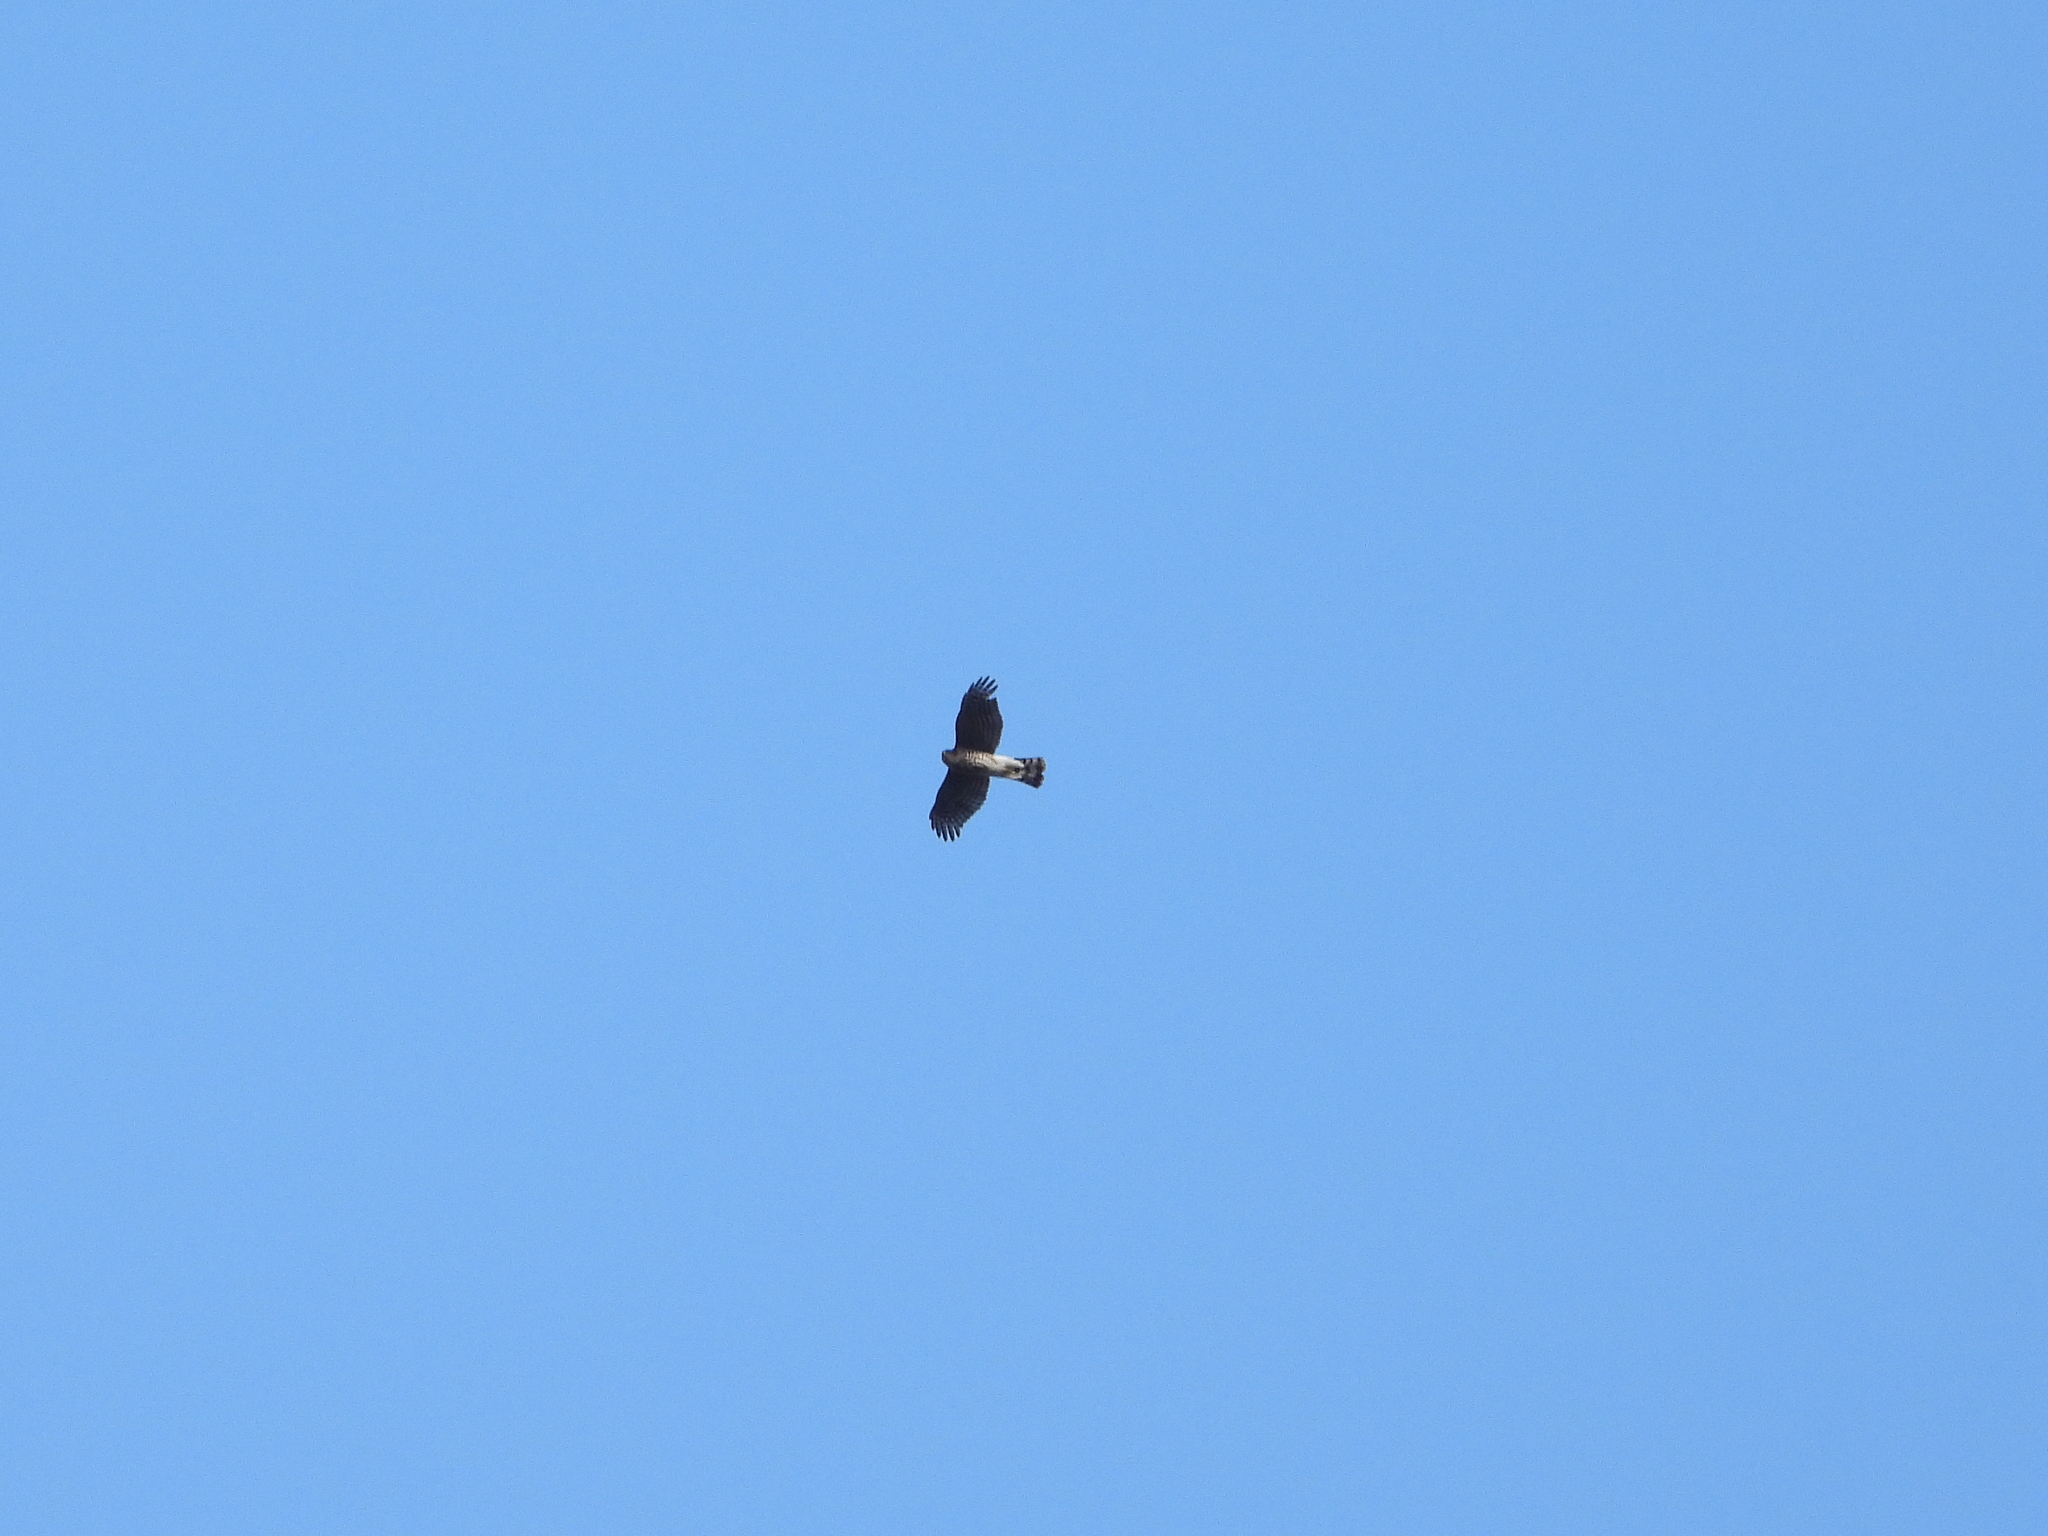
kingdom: Animalia
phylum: Chordata
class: Aves
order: Accipitriformes
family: Accipitridae
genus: Accipiter
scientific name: Accipiter striatus
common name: Sharp-shinned hawk
